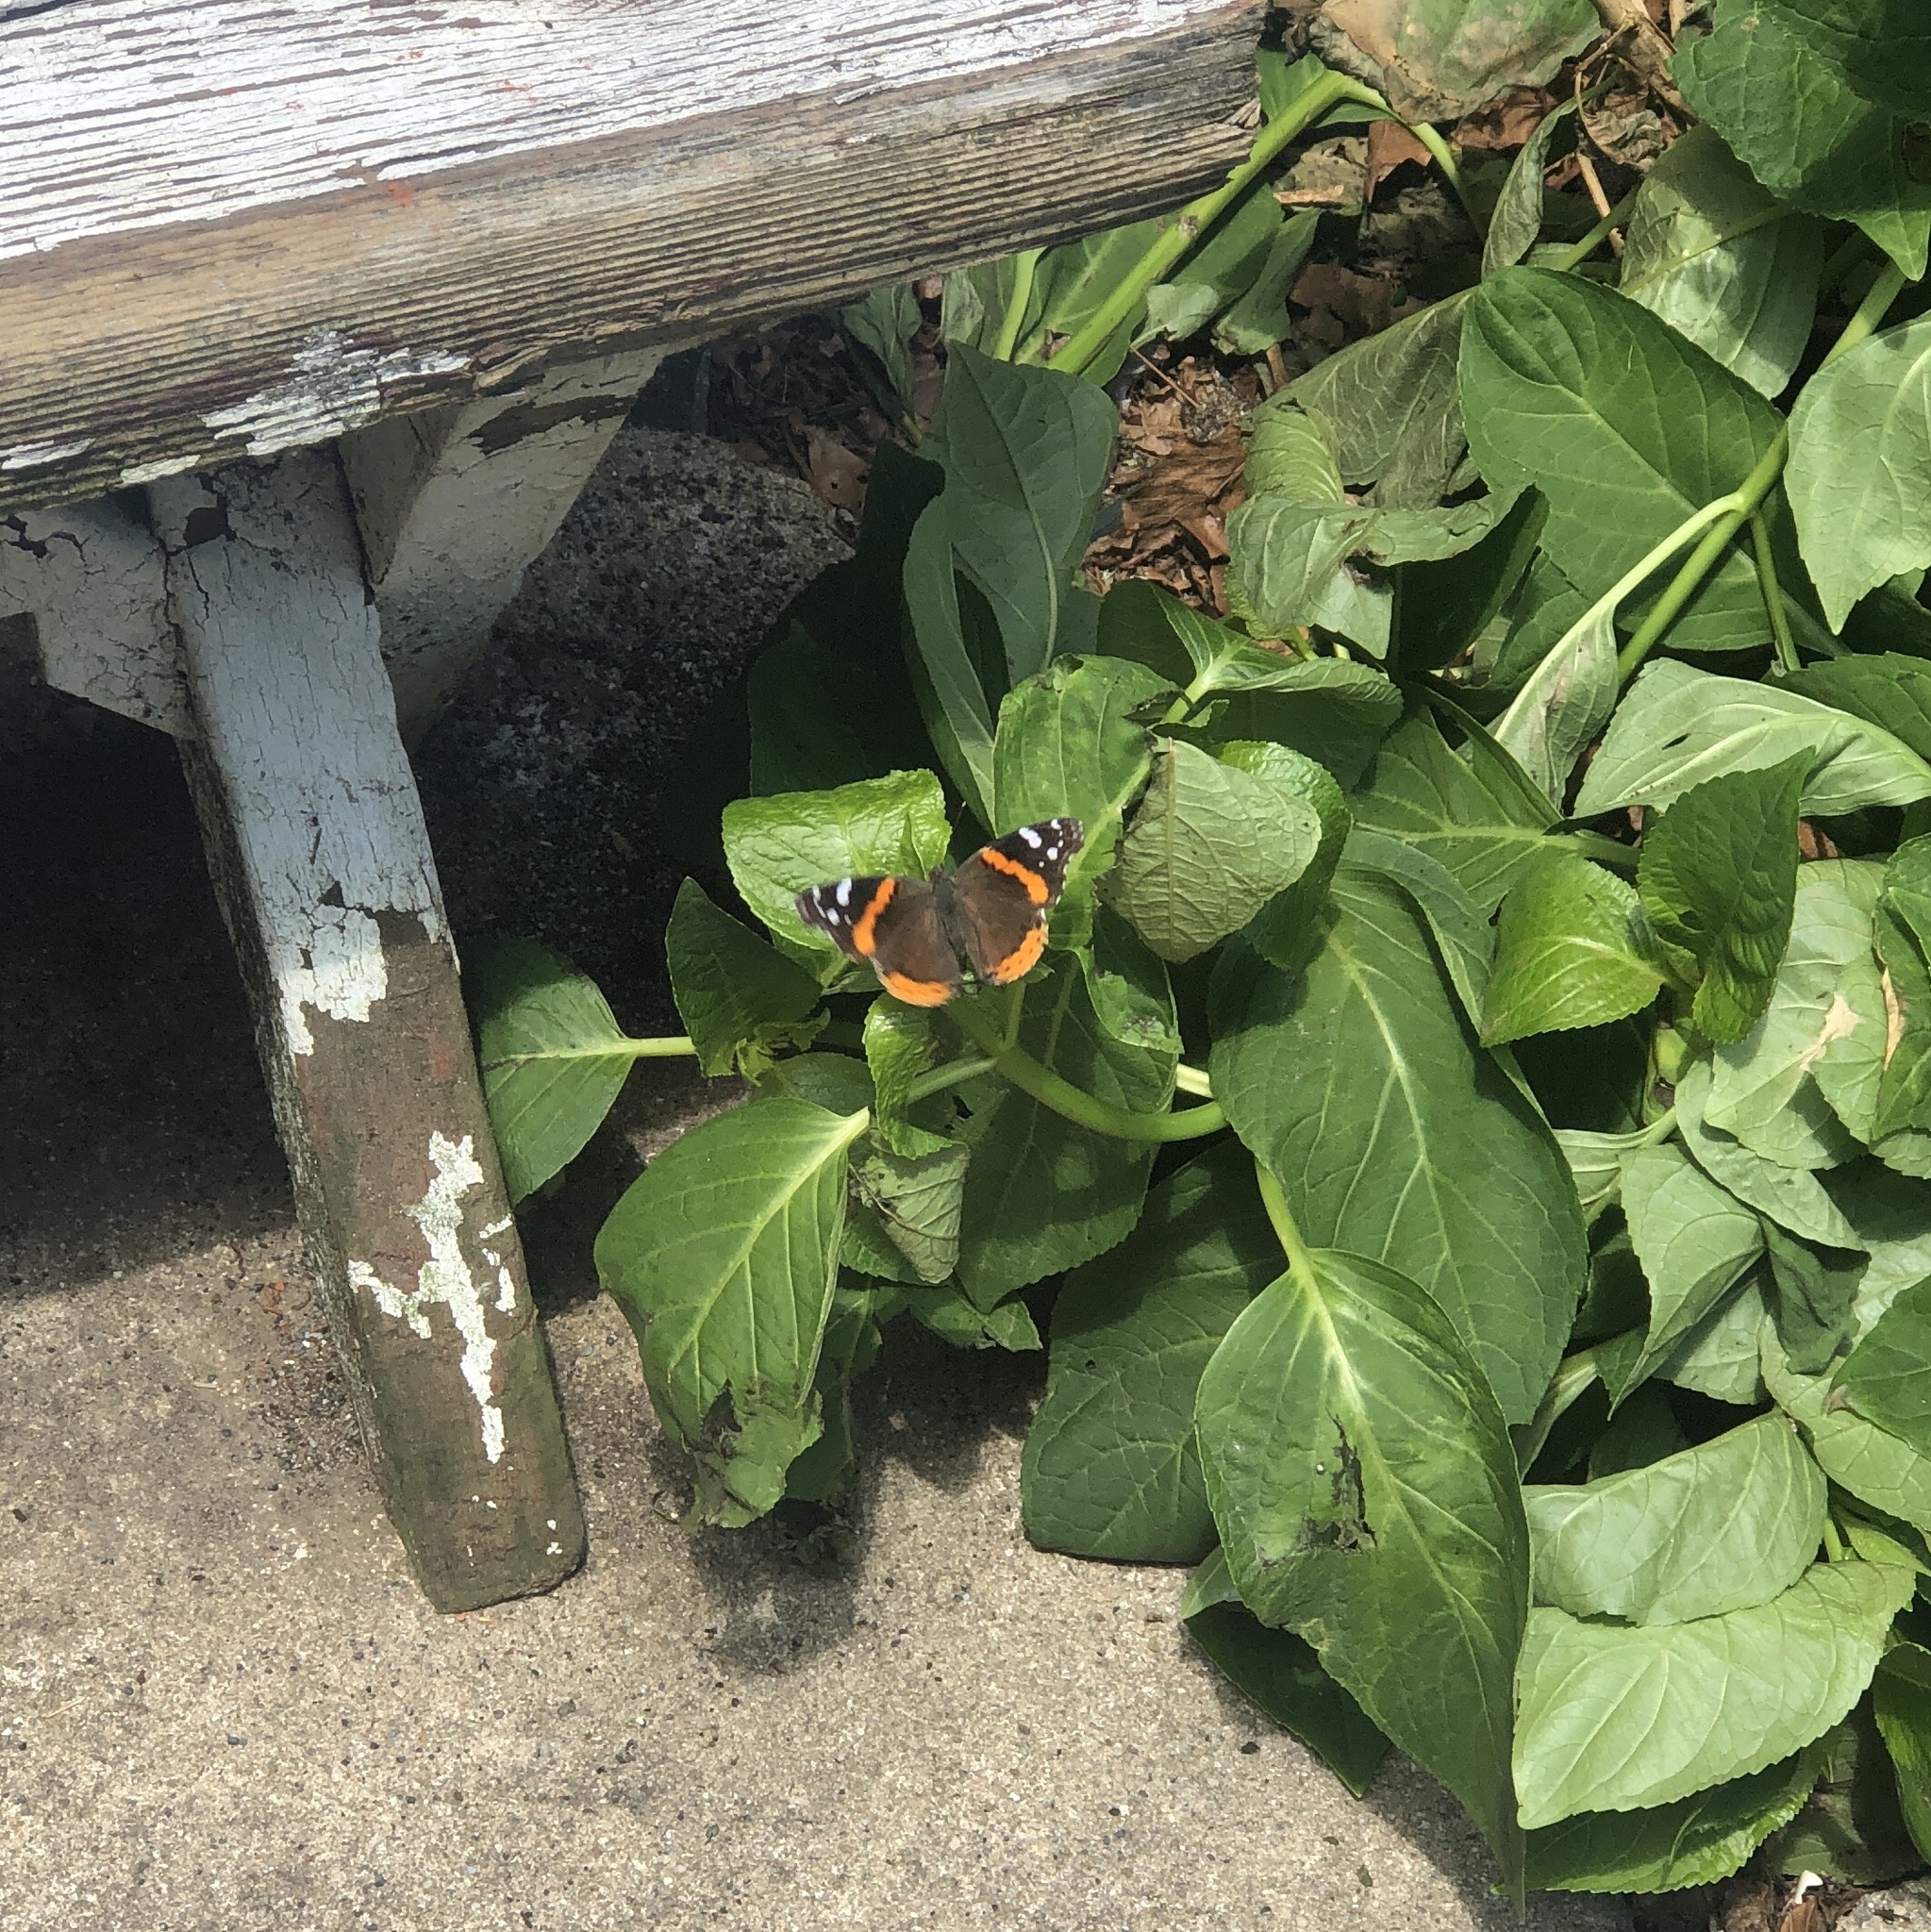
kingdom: Animalia
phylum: Arthropoda
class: Insecta
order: Lepidoptera
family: Nymphalidae
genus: Vanessa
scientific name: Vanessa atalanta
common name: Red admiral
